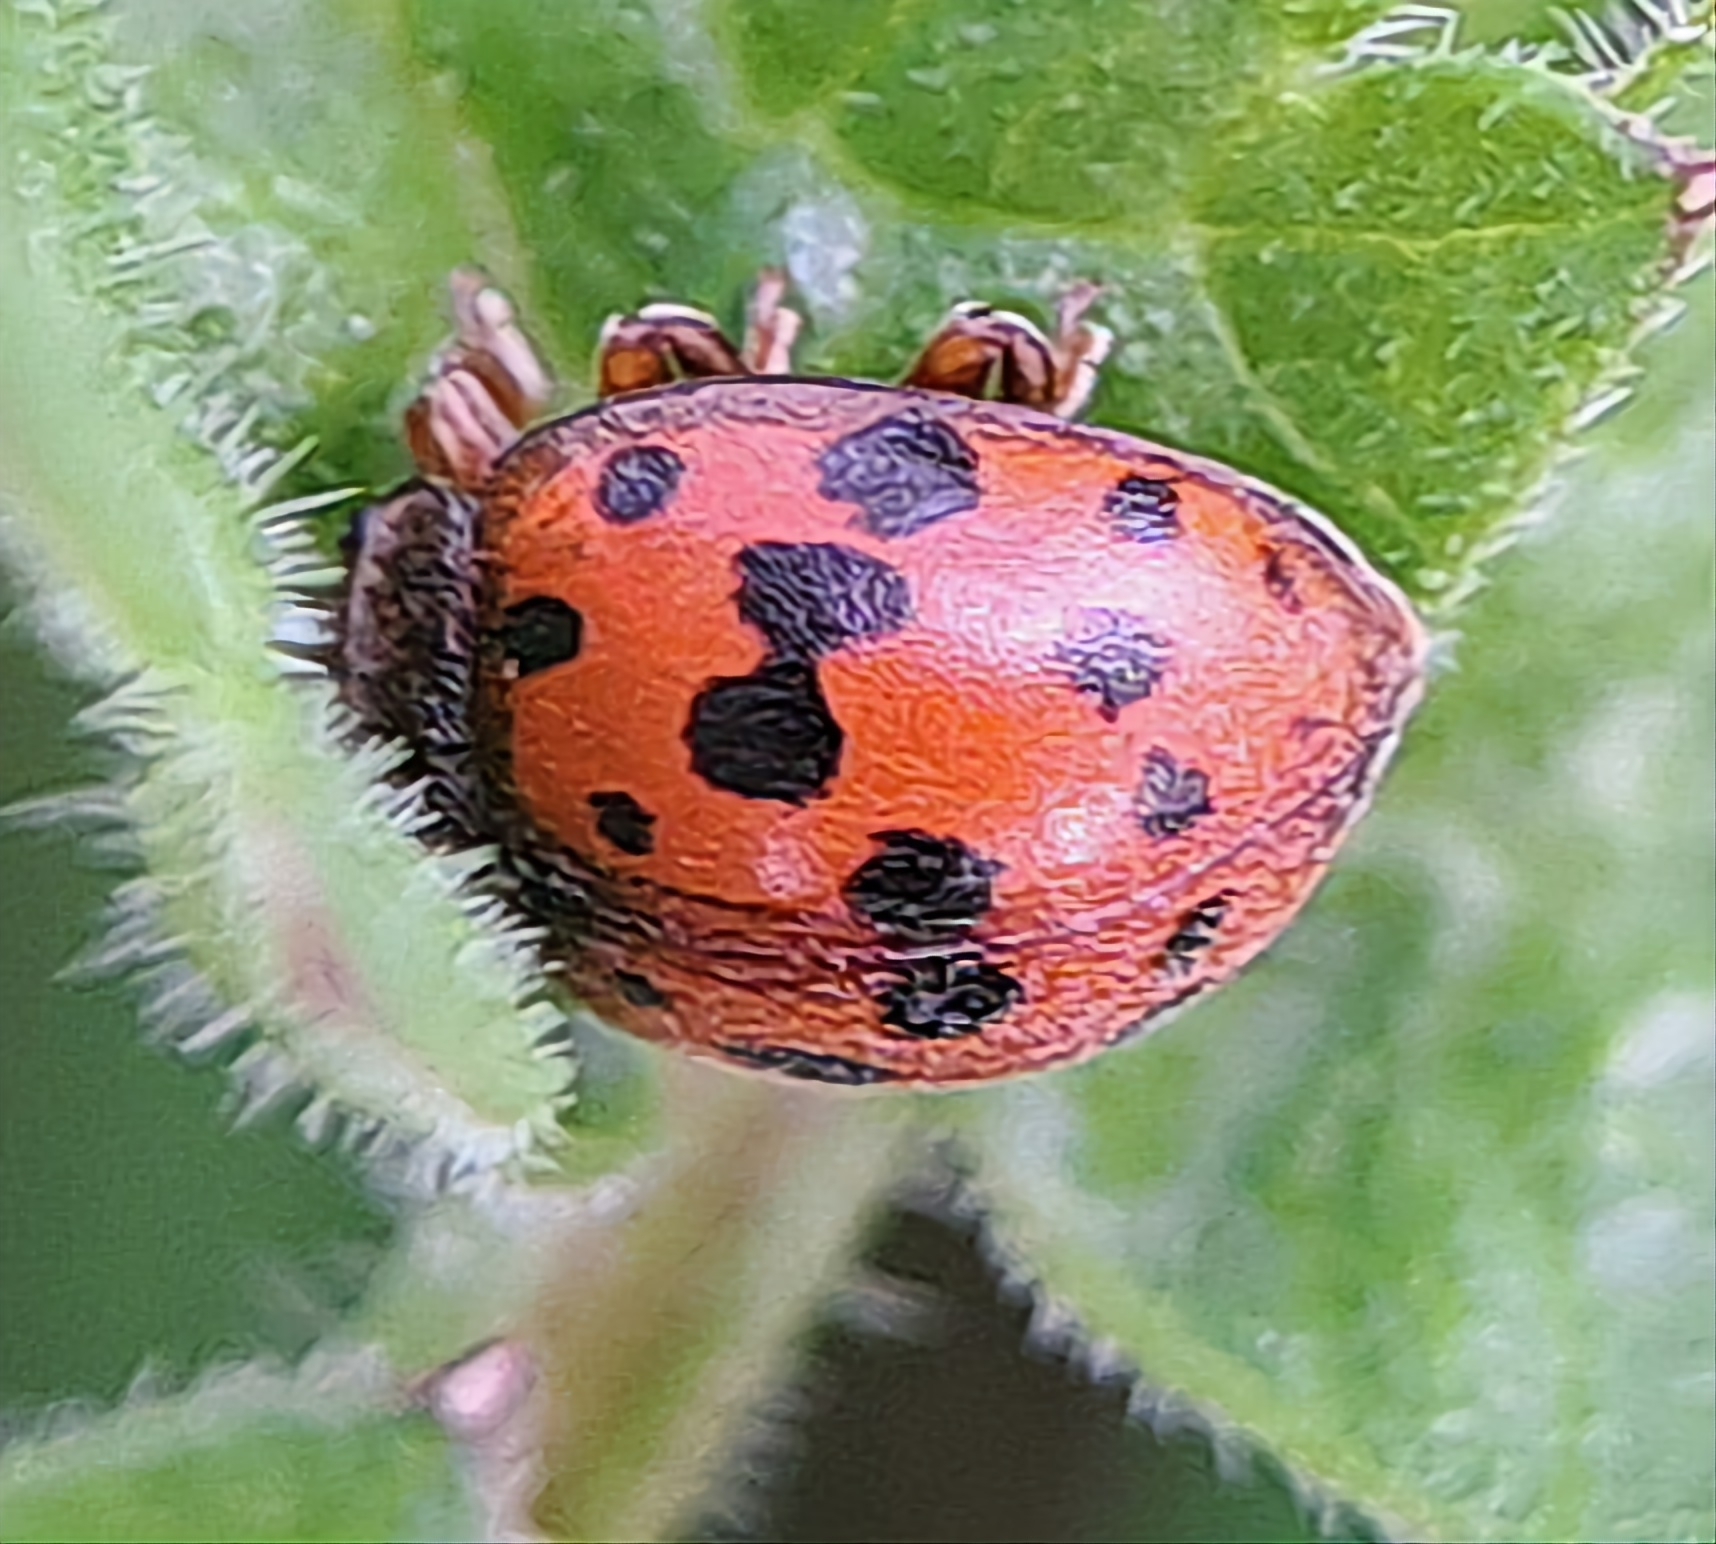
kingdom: Animalia
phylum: Arthropoda
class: Insecta
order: Coleoptera
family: Coccinellidae
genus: Subcoccinella
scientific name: Subcoccinella vigintiquatuorpunctata
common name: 24-spot ladybird
